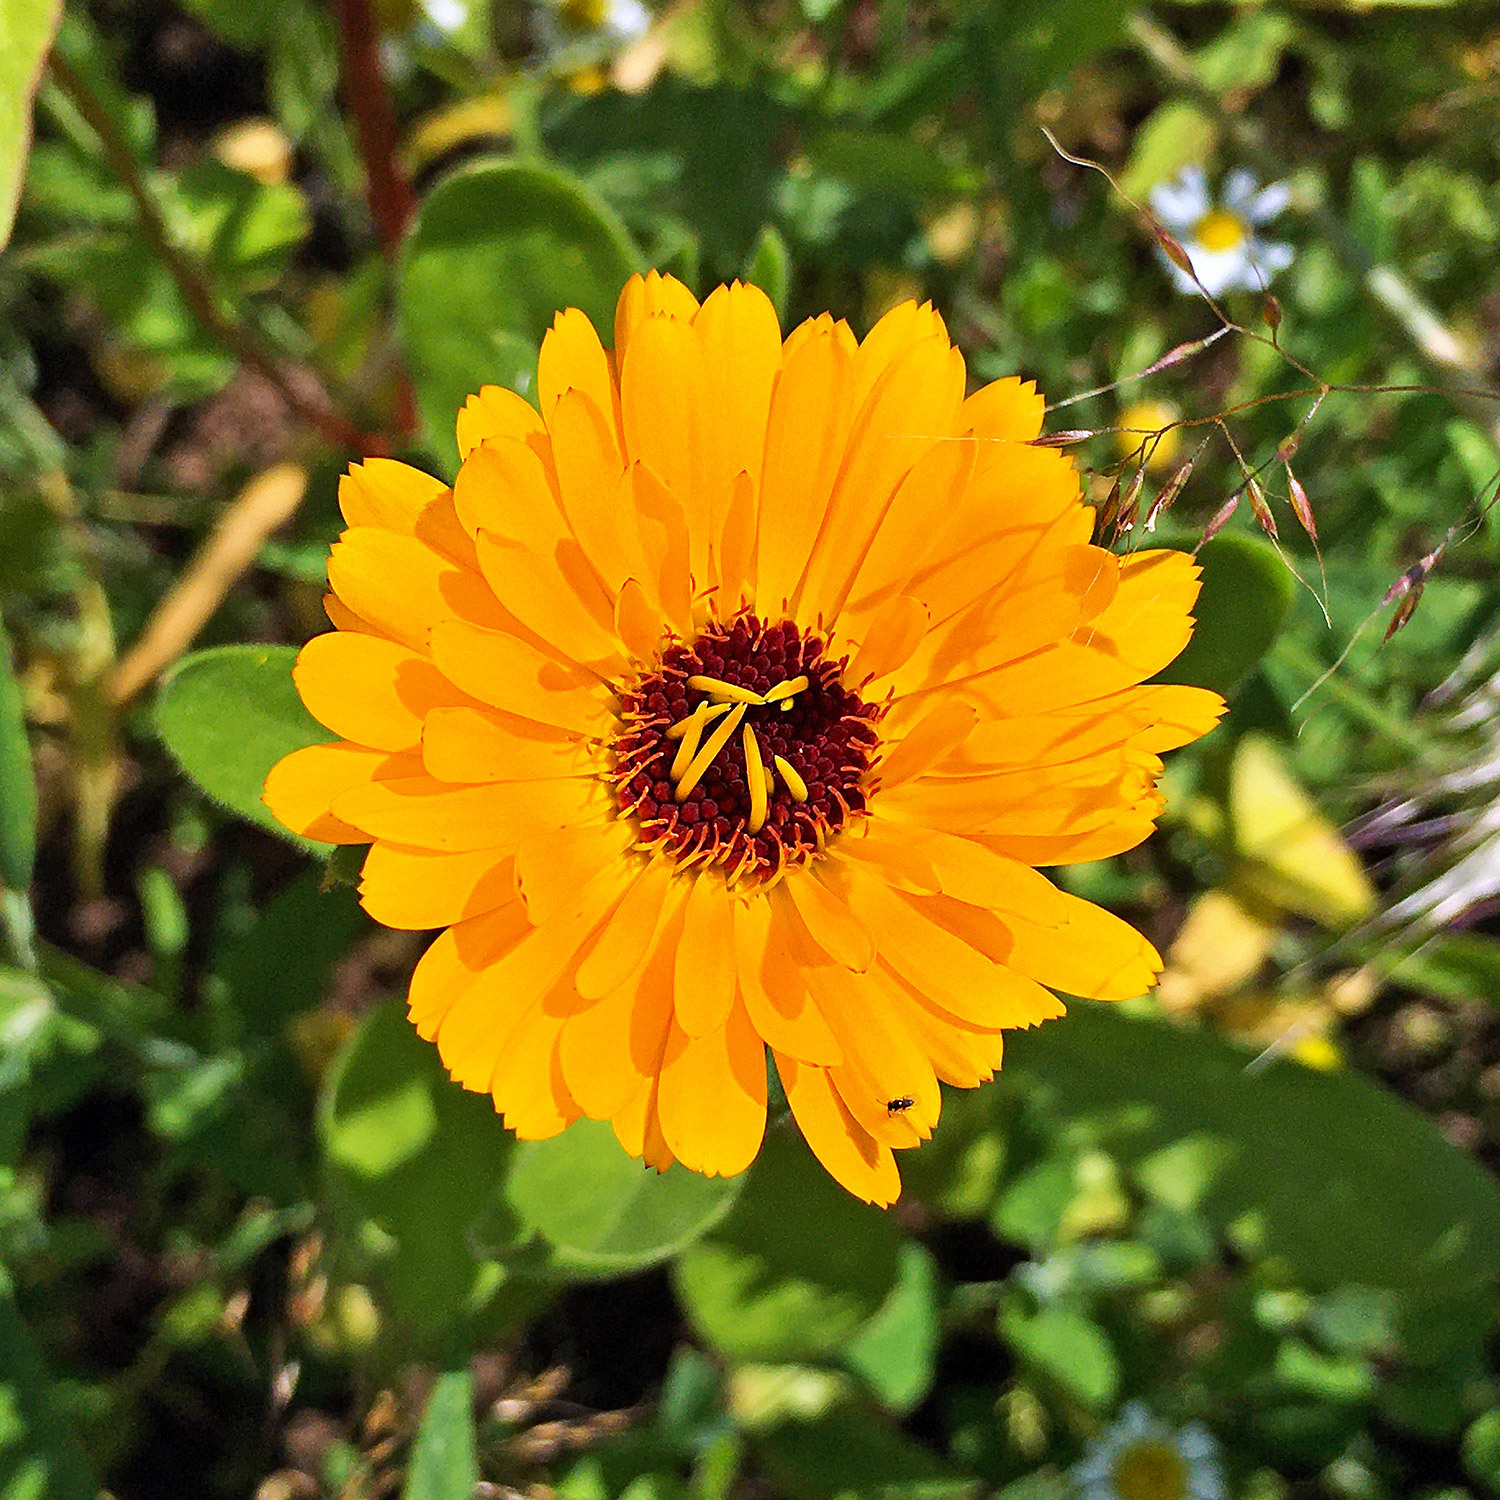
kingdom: Plantae
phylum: Tracheophyta
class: Magnoliopsida
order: Asterales
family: Asteraceae
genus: Calendula
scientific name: Calendula officinalis
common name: Pot marigold
